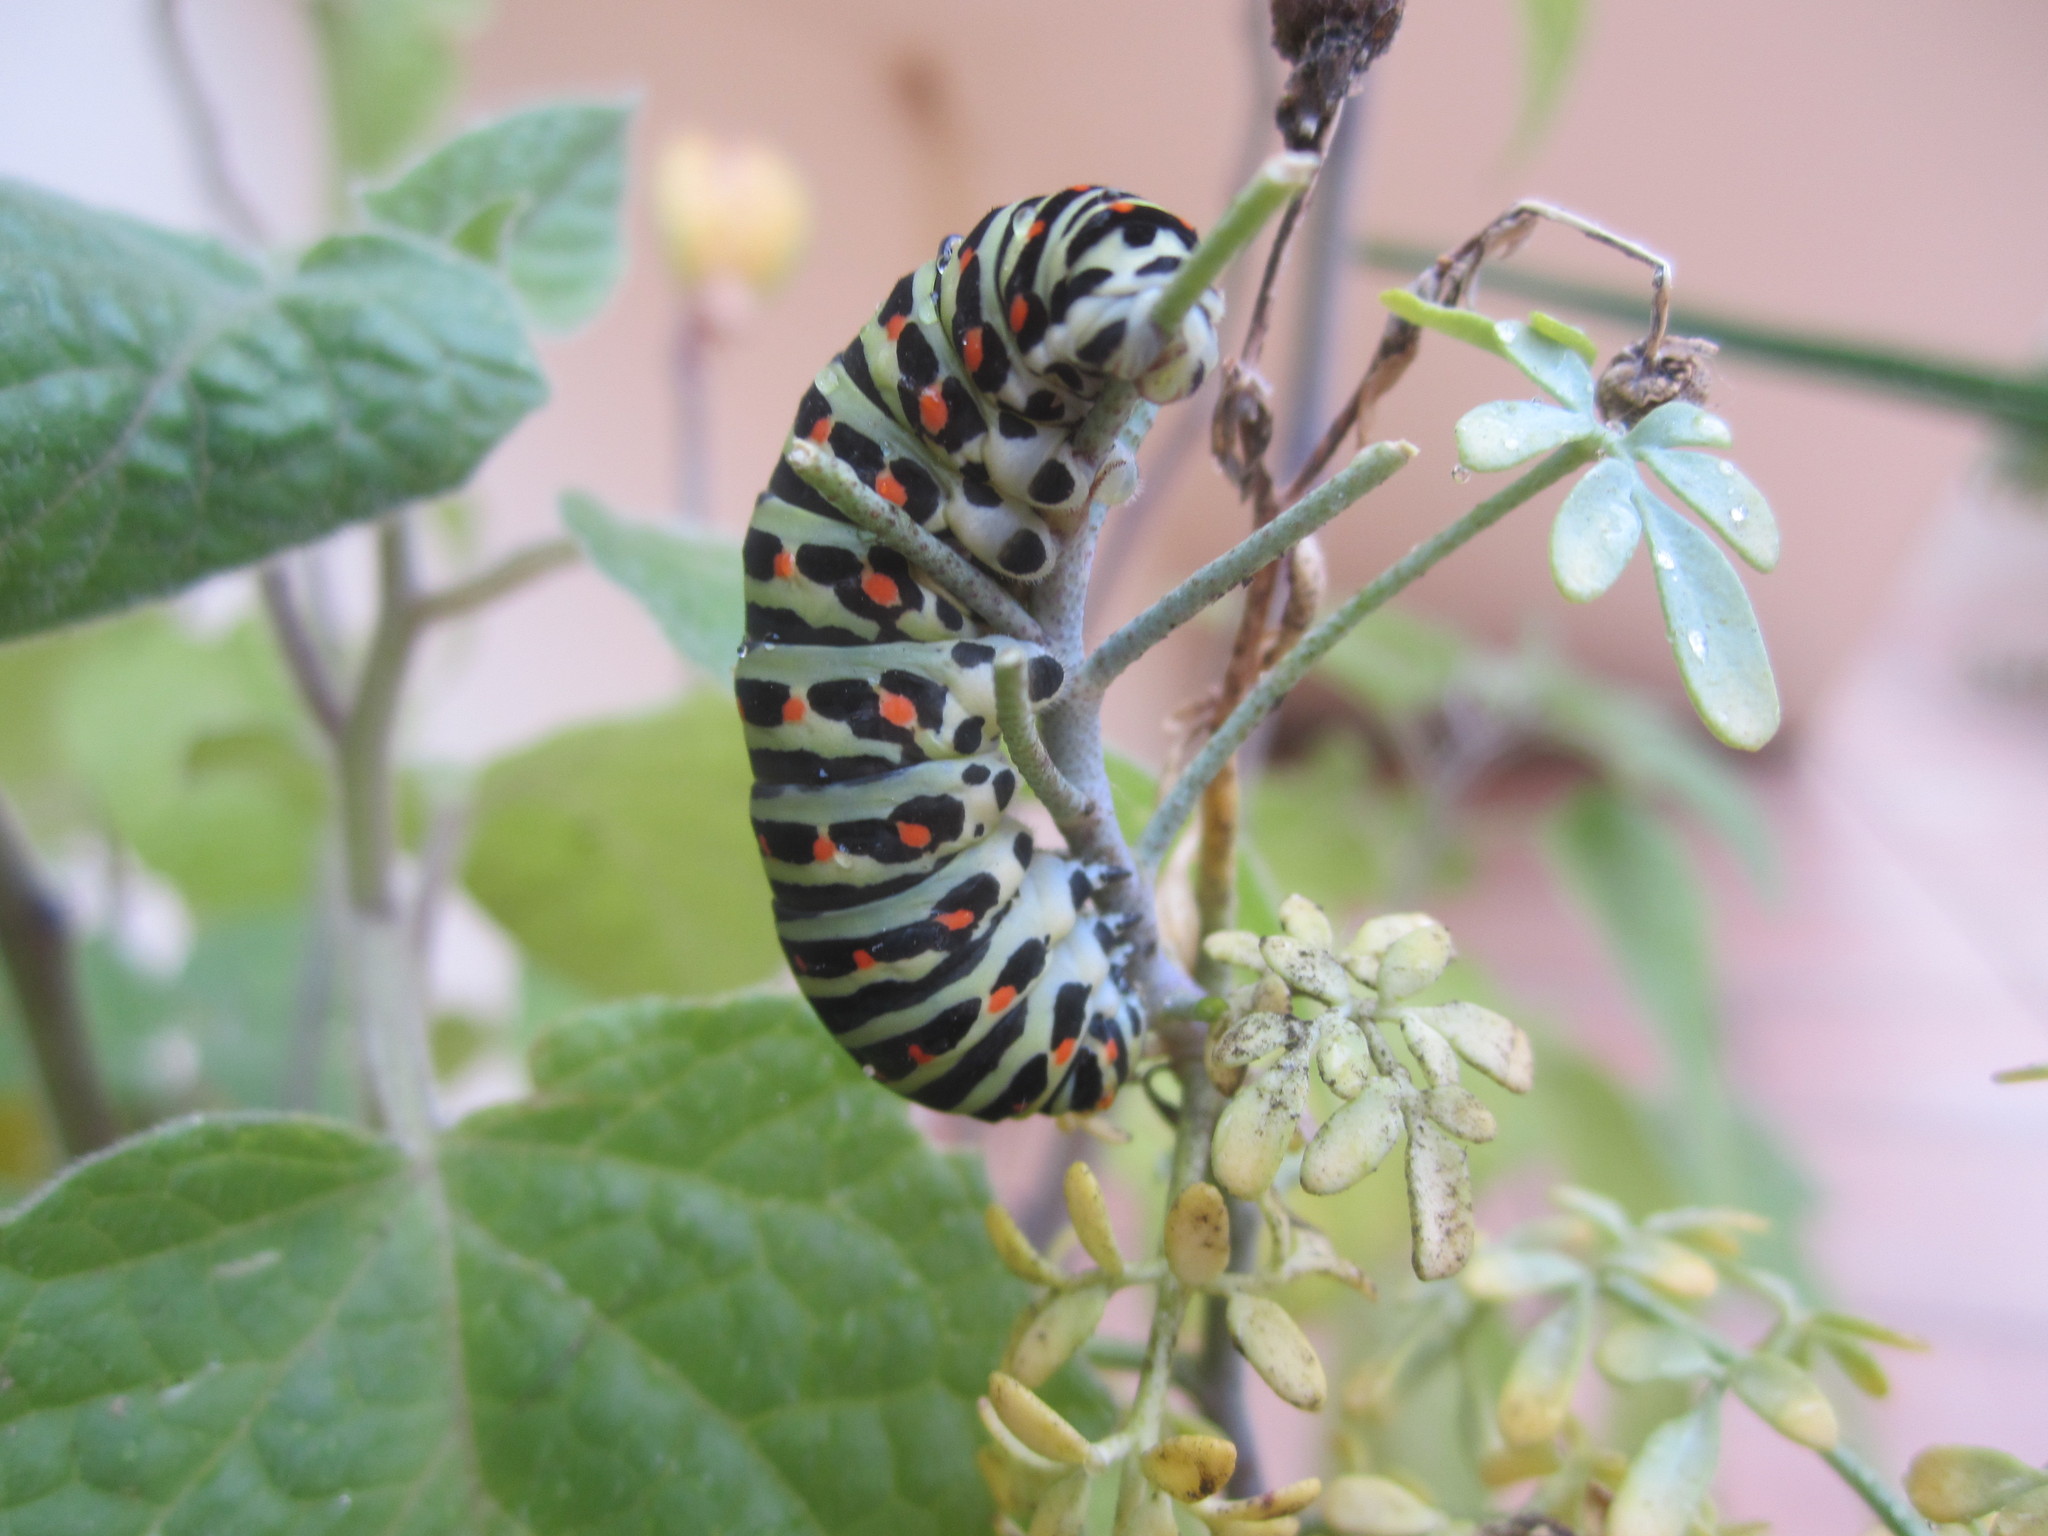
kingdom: Animalia
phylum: Arthropoda
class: Insecta
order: Lepidoptera
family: Papilionidae
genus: Papilio
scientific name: Papilio machaon
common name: Swallowtail
